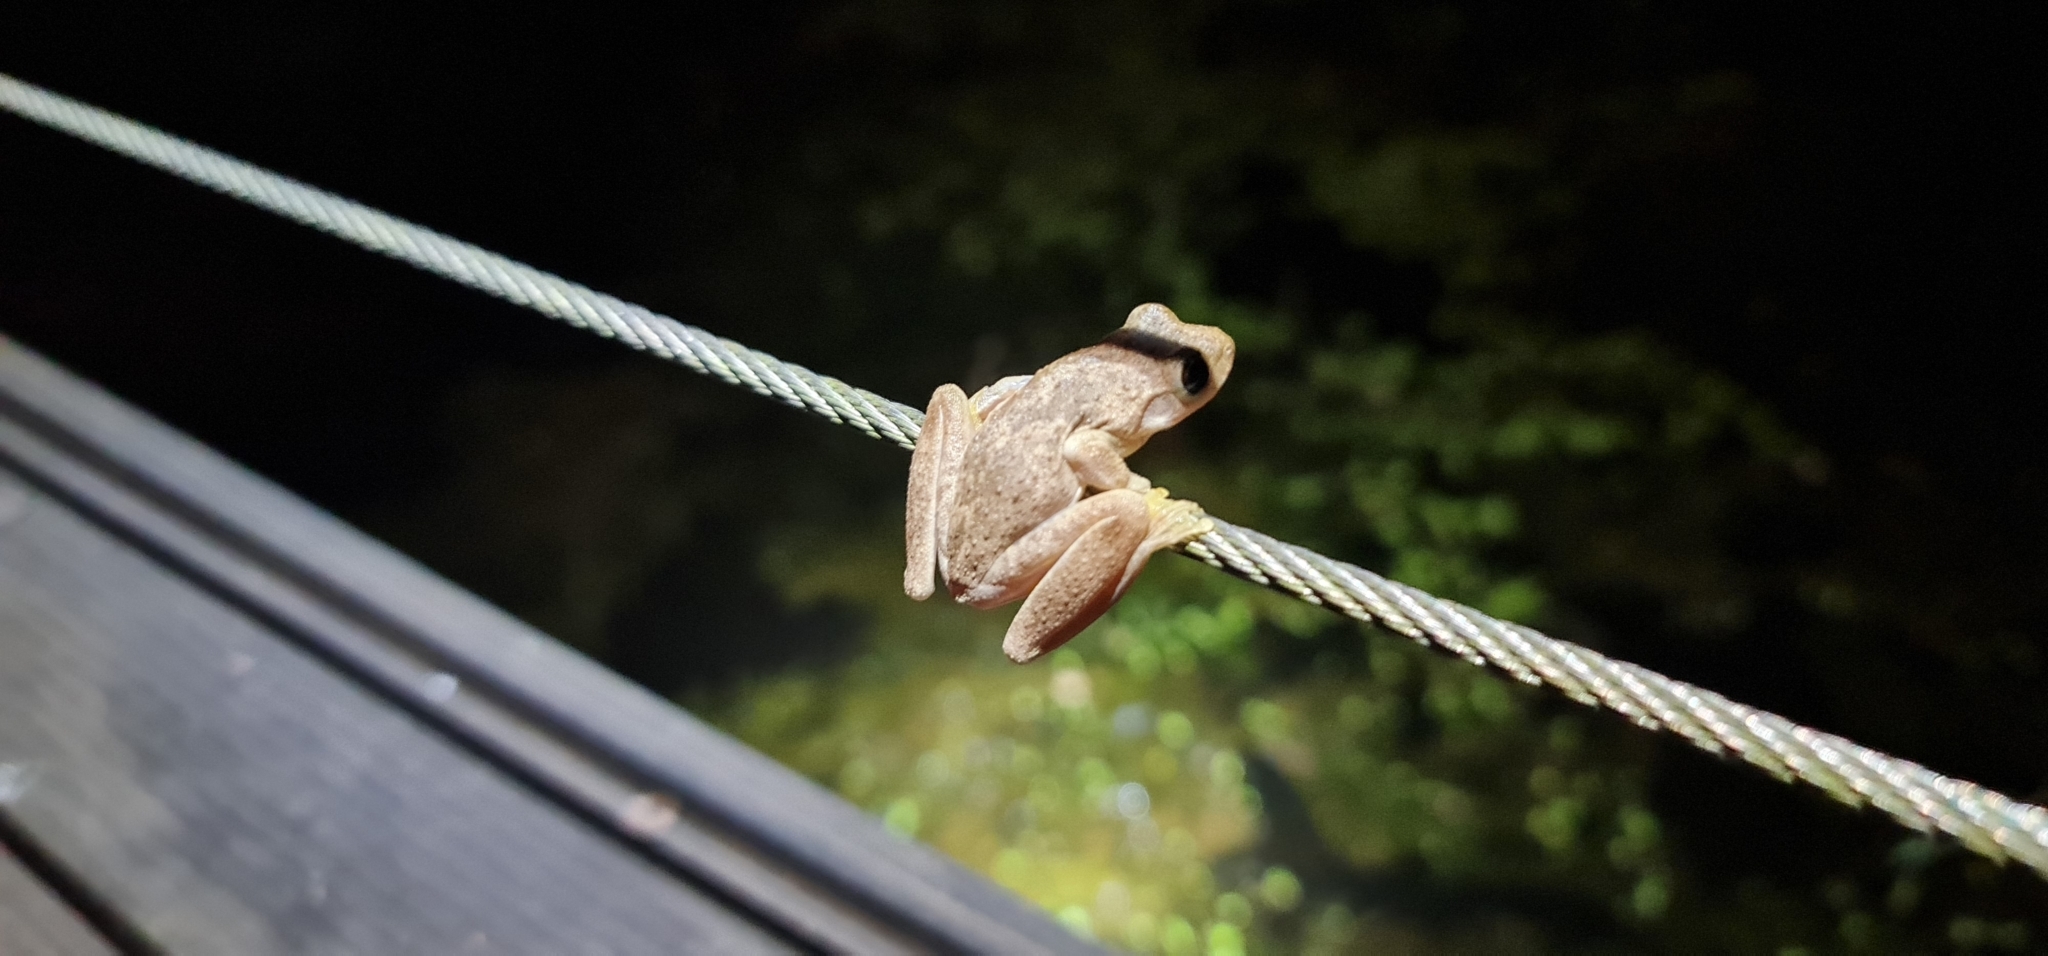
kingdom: Animalia
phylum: Chordata
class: Amphibia
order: Anura
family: Pelodryadidae
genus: Litoria
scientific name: Litoria
